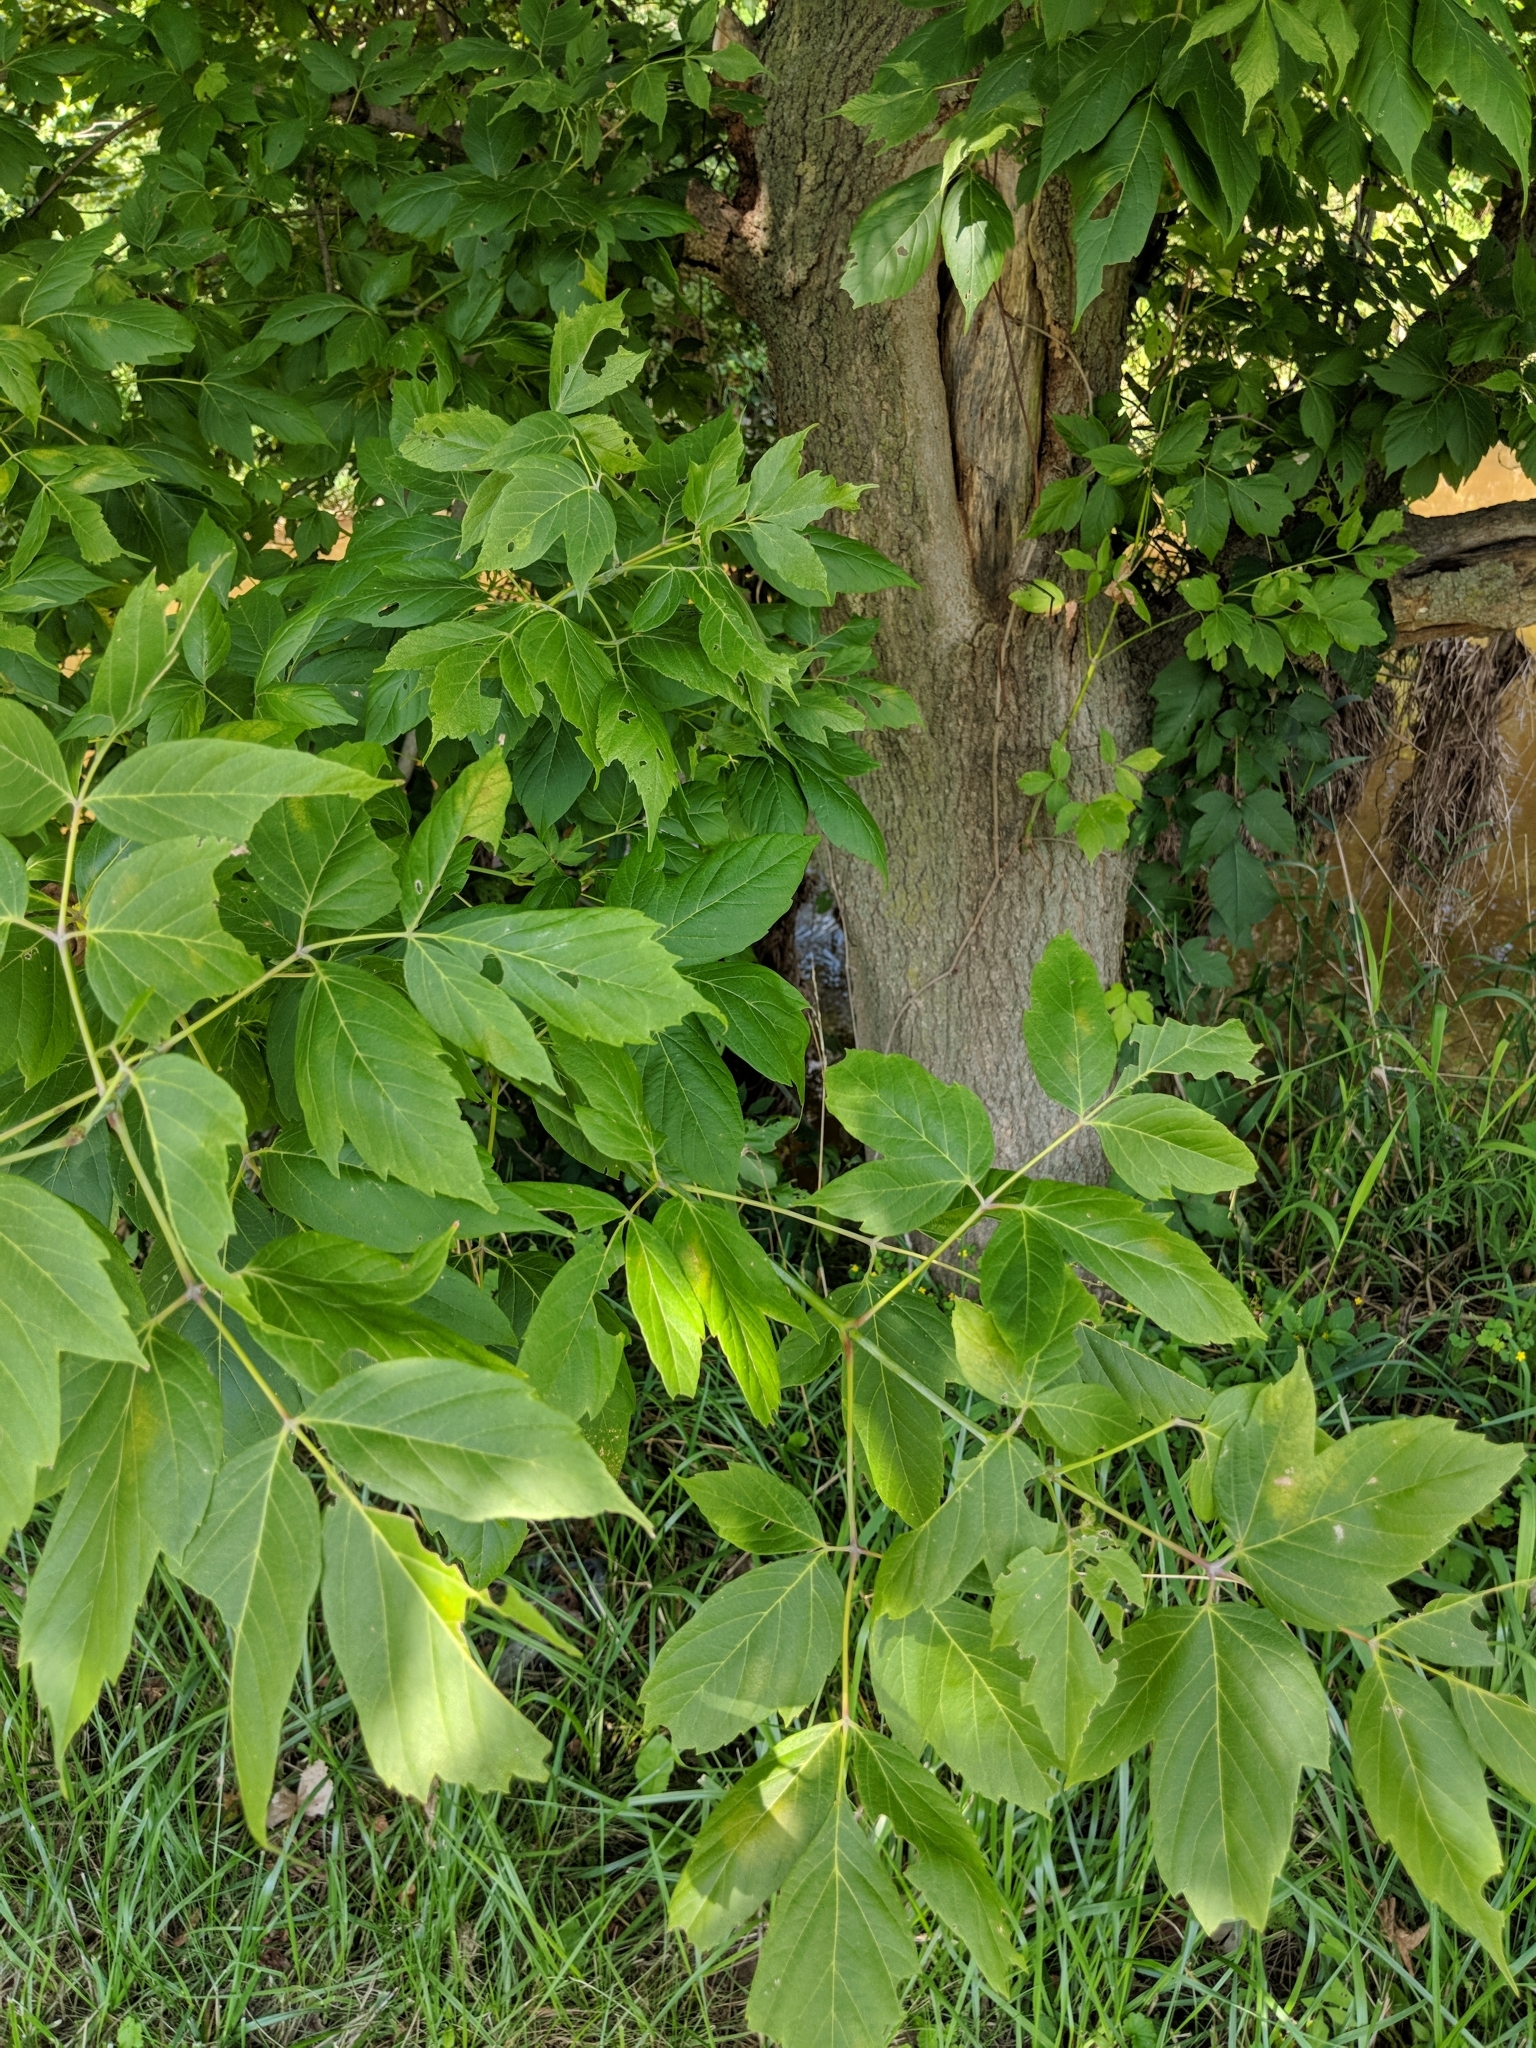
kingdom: Plantae
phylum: Tracheophyta
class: Magnoliopsida
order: Sapindales
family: Sapindaceae
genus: Acer
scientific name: Acer negundo
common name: Ashleaf maple
